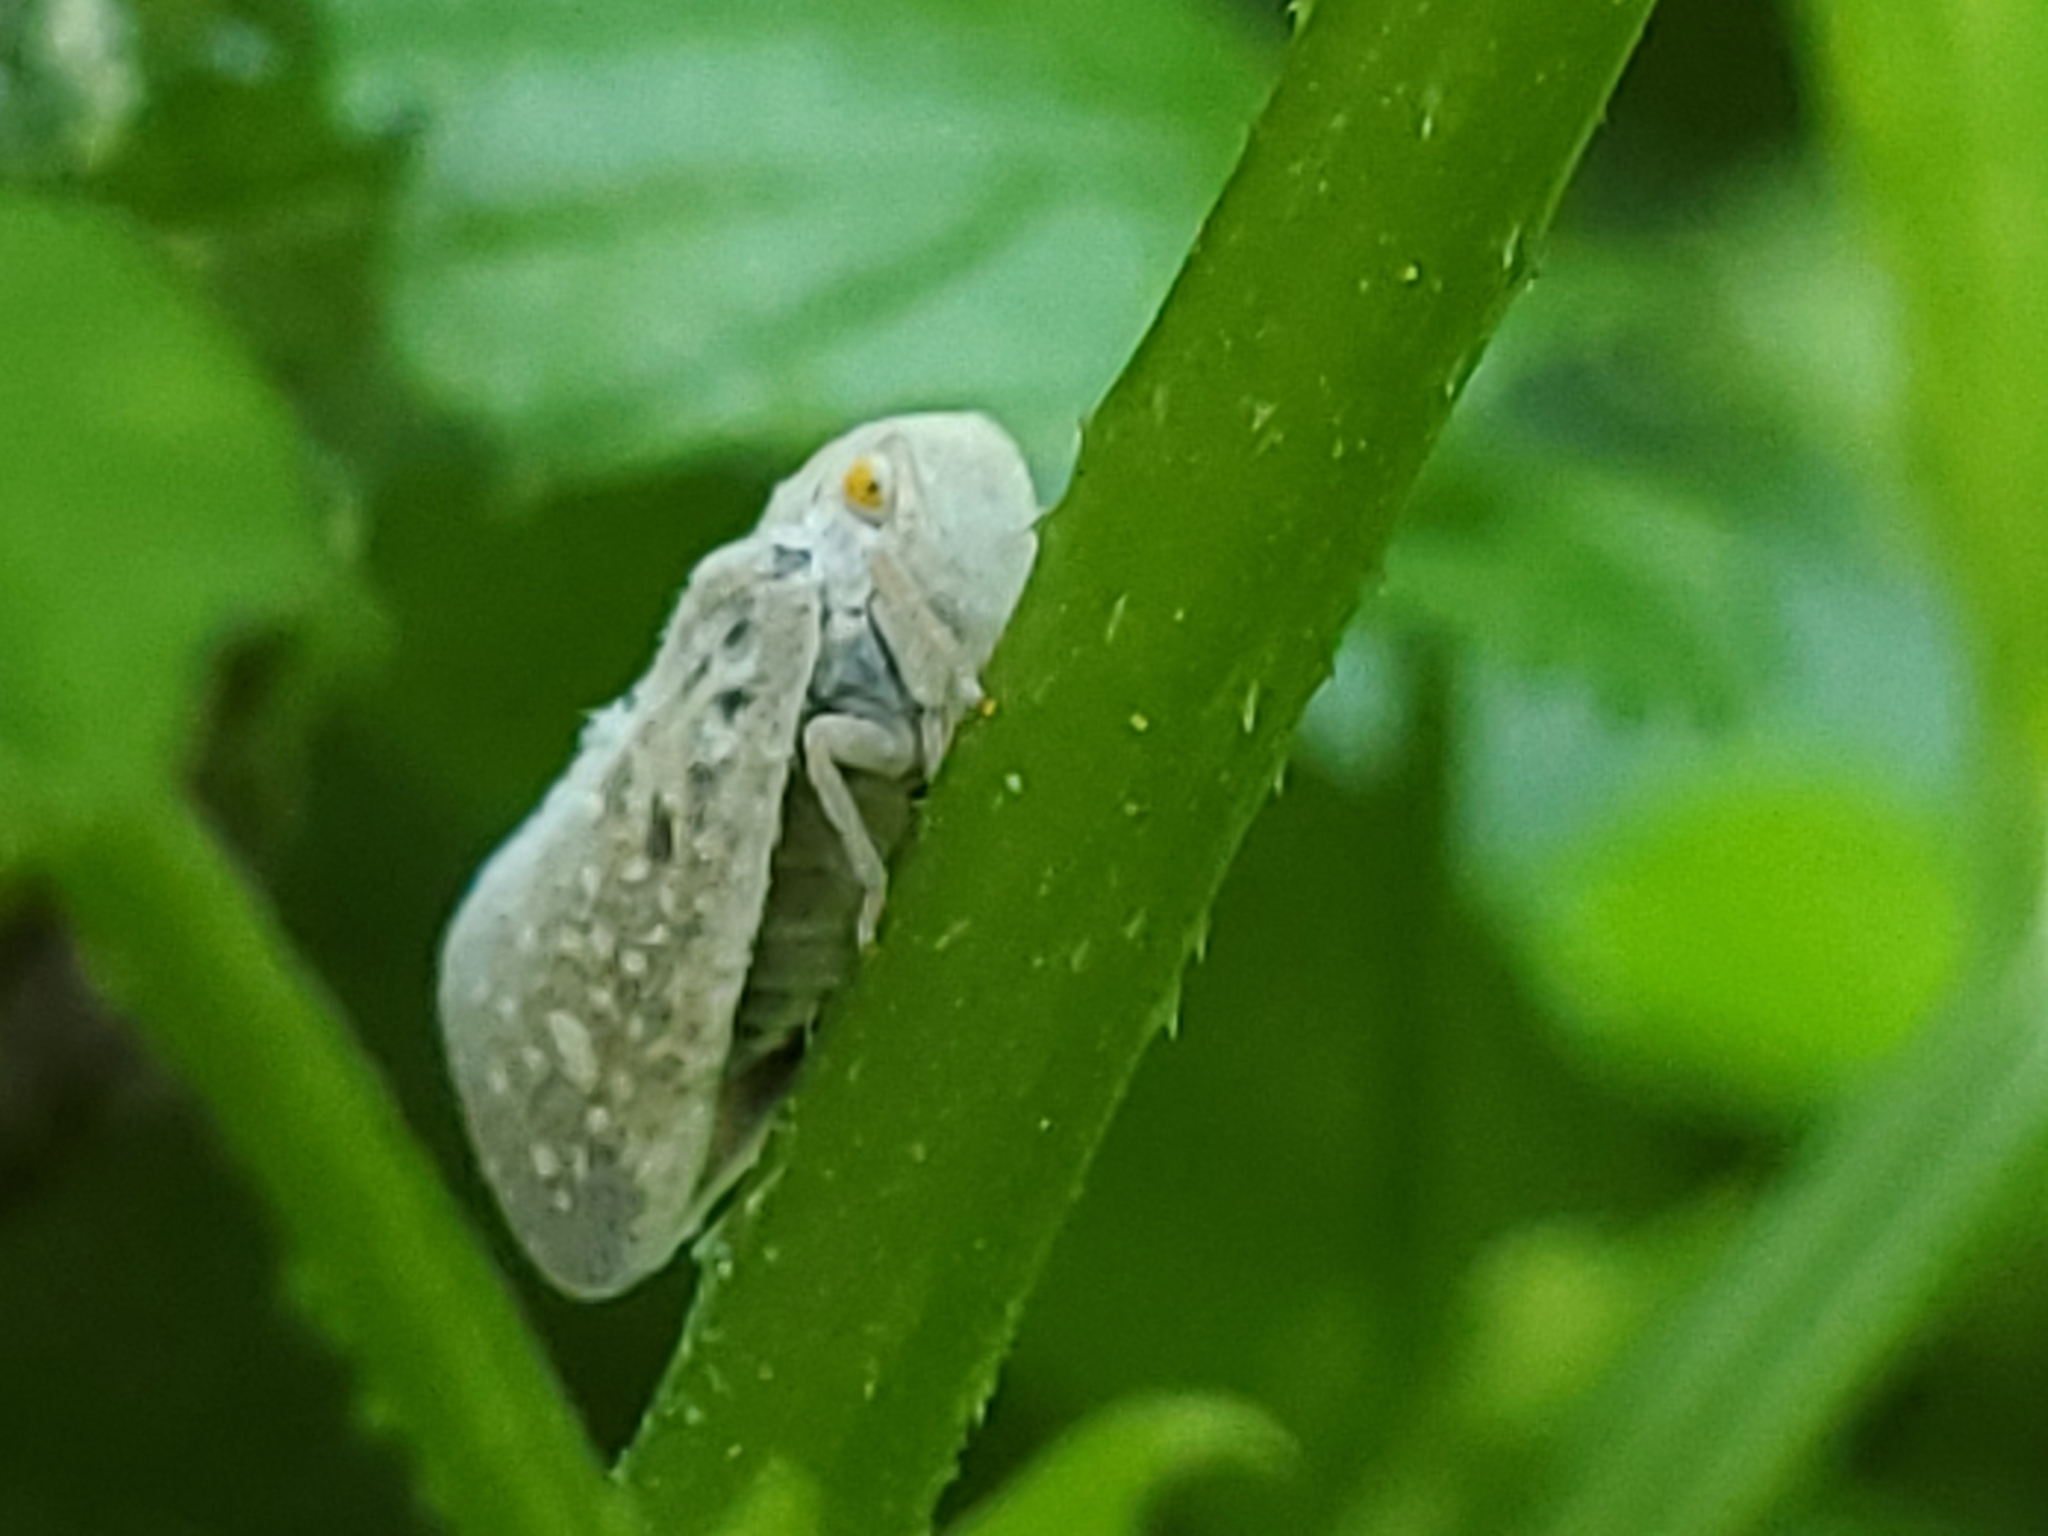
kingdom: Animalia
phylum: Arthropoda
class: Insecta
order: Hemiptera
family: Flatidae
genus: Metcalfa
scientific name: Metcalfa pruinosa
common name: Citrus flatid planthopper
